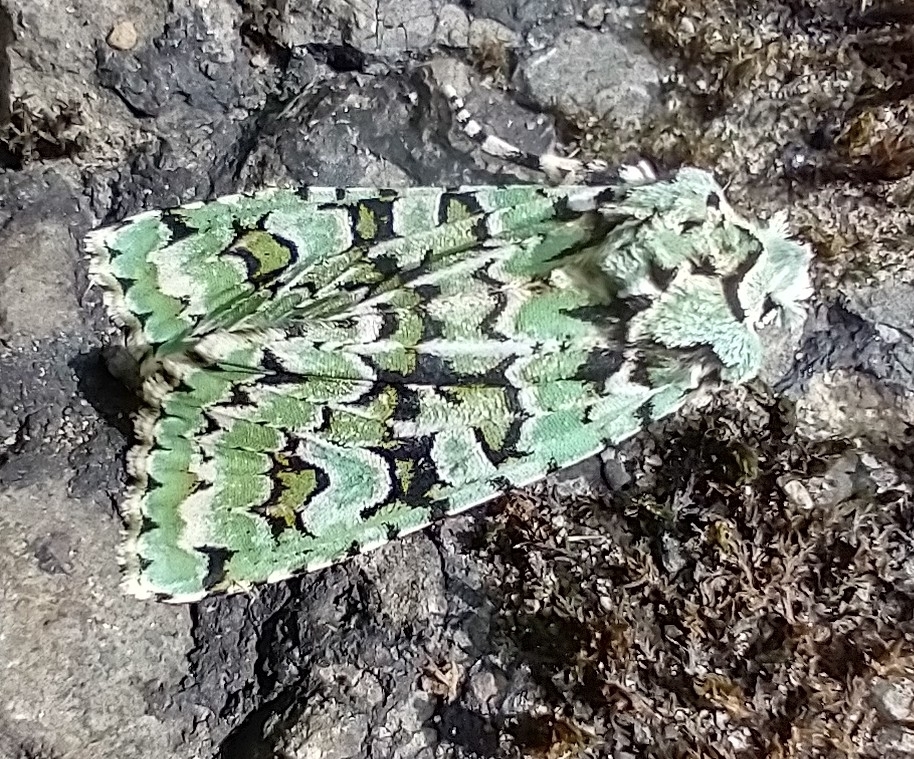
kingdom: Animalia
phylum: Arthropoda
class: Insecta
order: Lepidoptera
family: Noctuidae
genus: Griposia
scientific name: Griposia aprilina
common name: Merveille du jour
